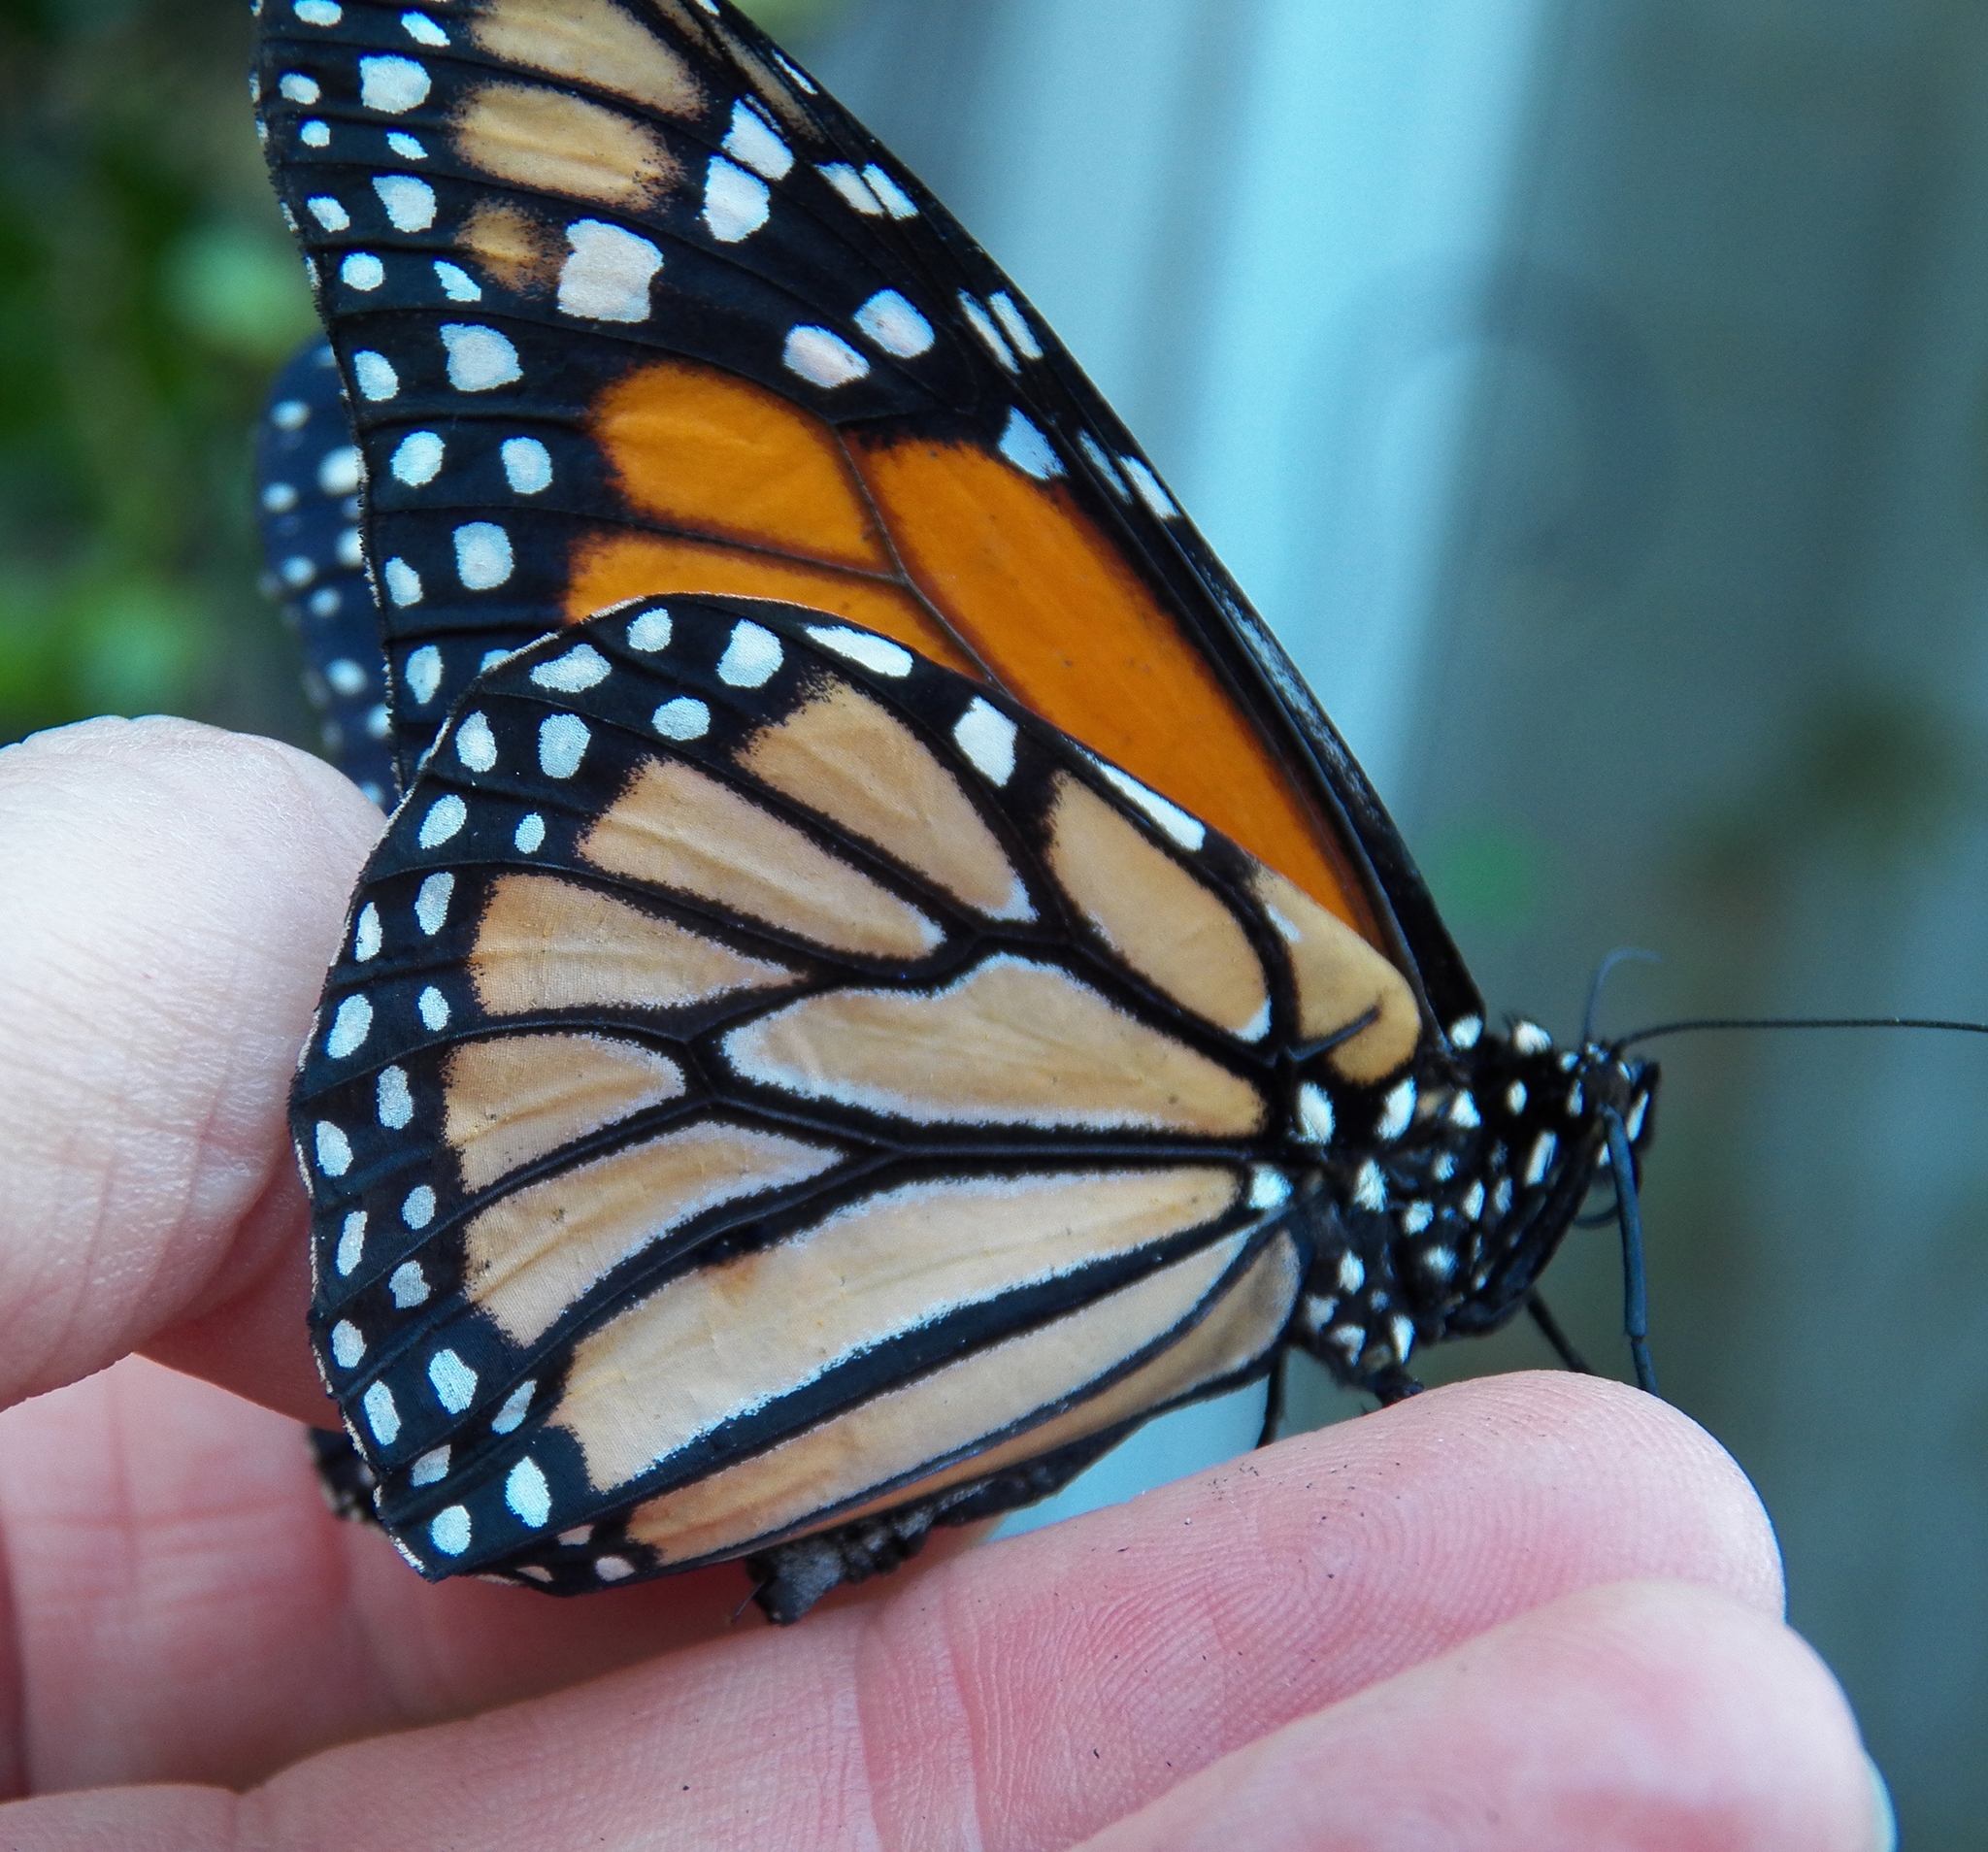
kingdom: Animalia
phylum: Arthropoda
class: Insecta
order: Lepidoptera
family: Nymphalidae
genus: Danaus
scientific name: Danaus plexippus
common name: Monarch
